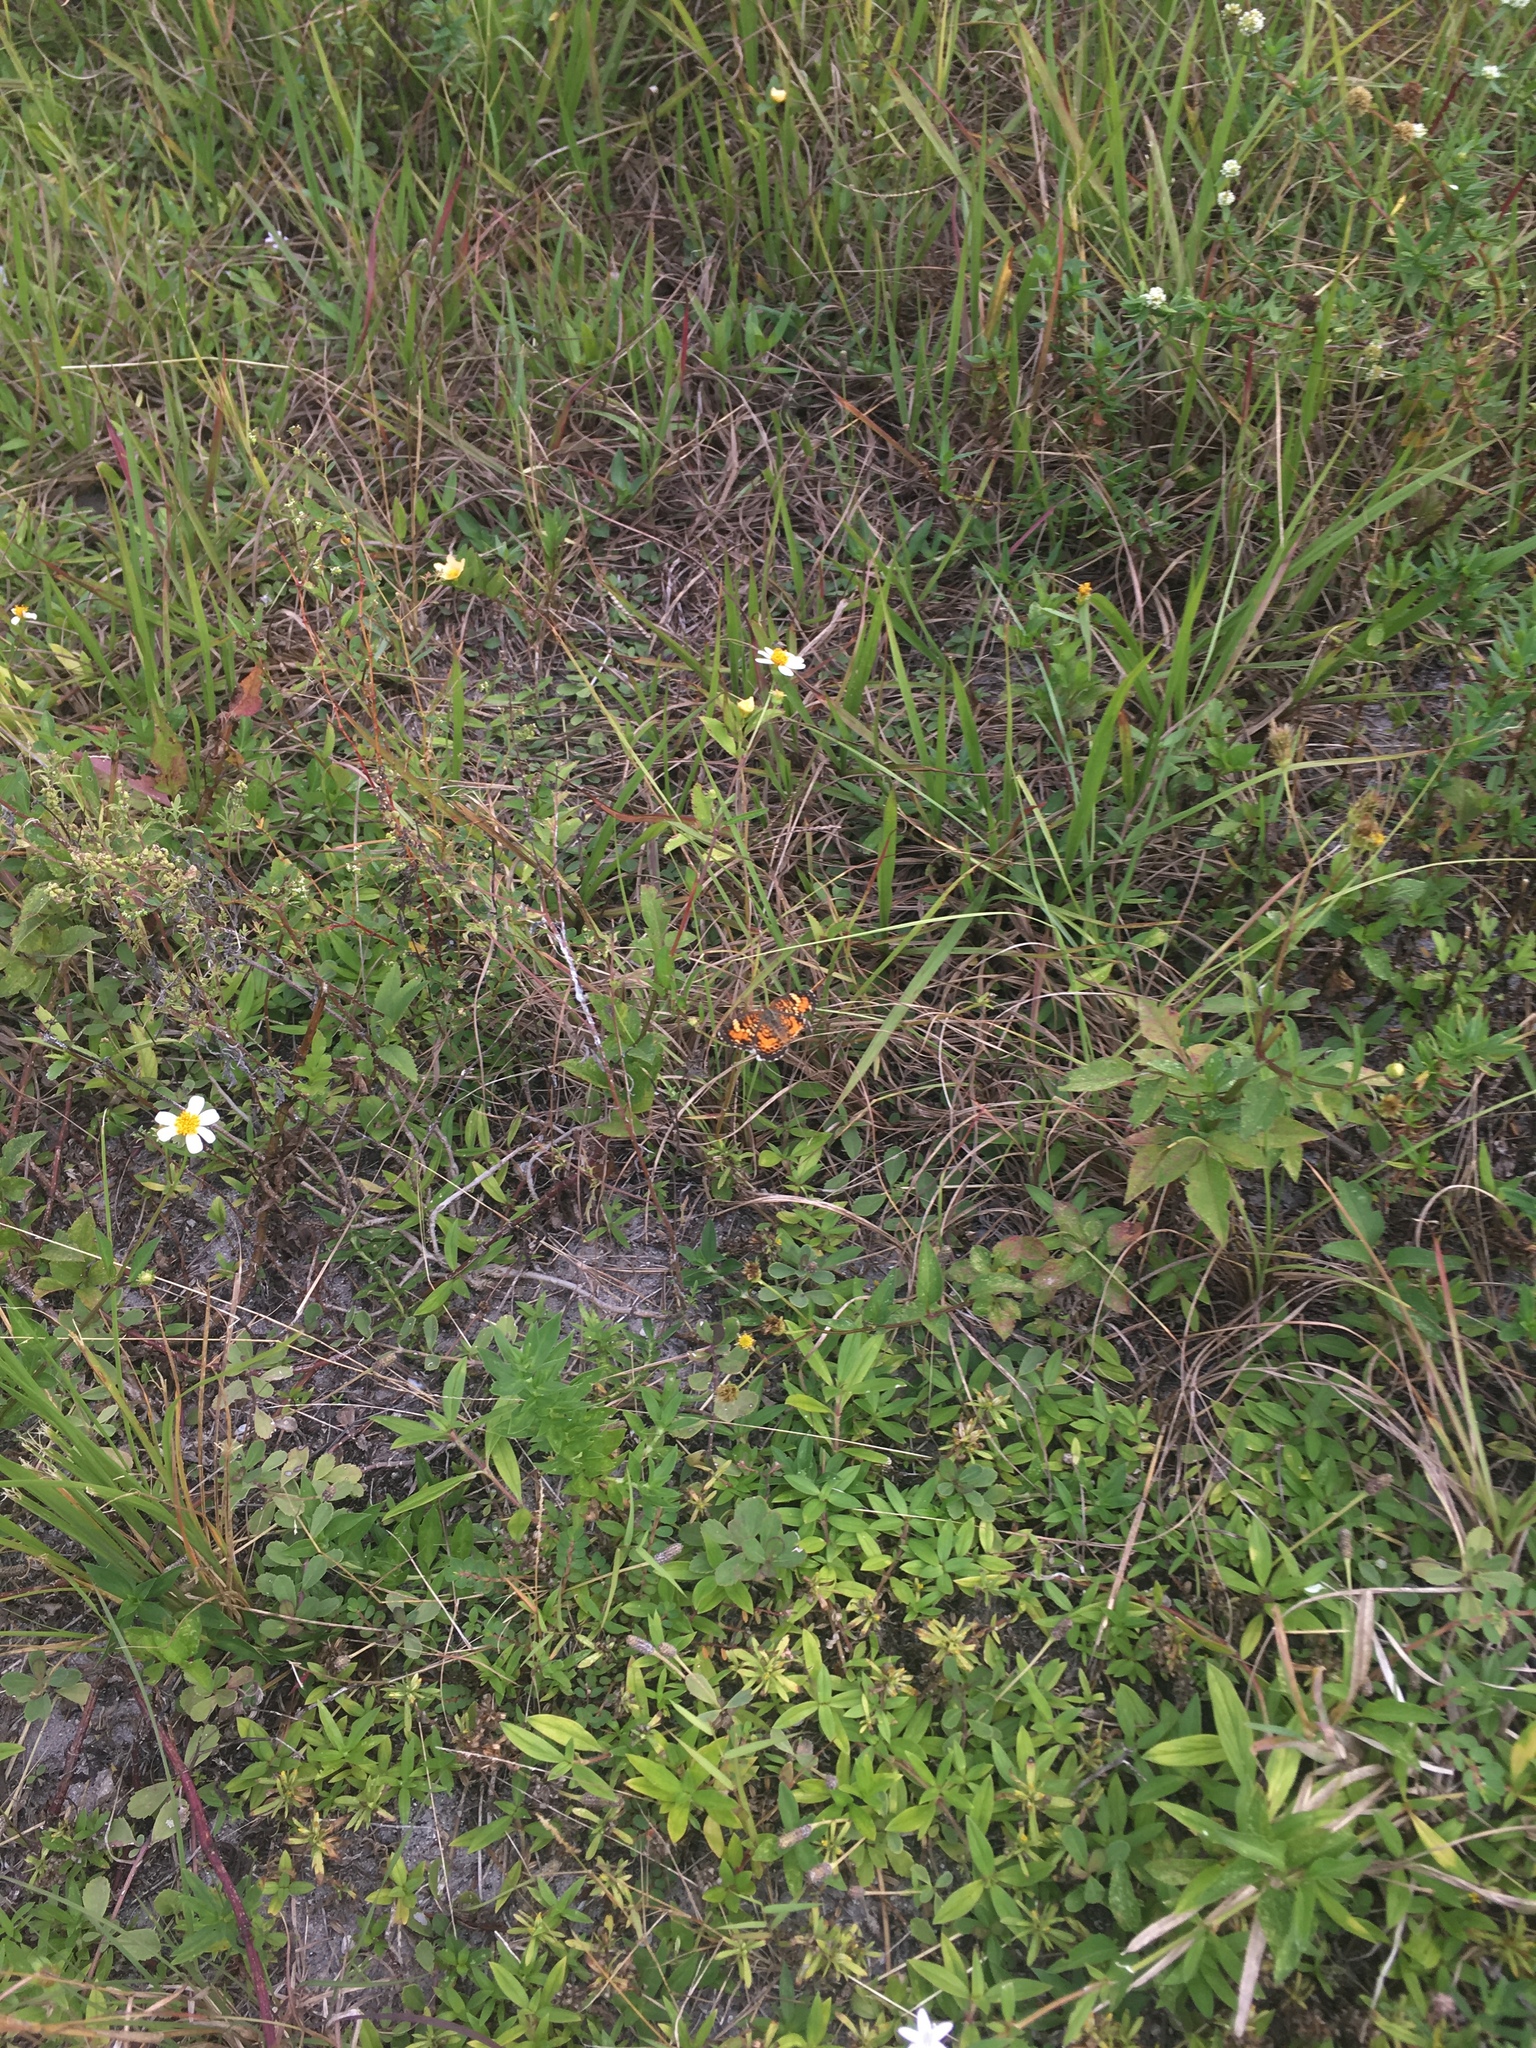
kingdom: Animalia
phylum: Arthropoda
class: Insecta
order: Lepidoptera
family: Nymphalidae
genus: Phyciodes
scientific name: Phyciodes phaon
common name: Phaon crescent
